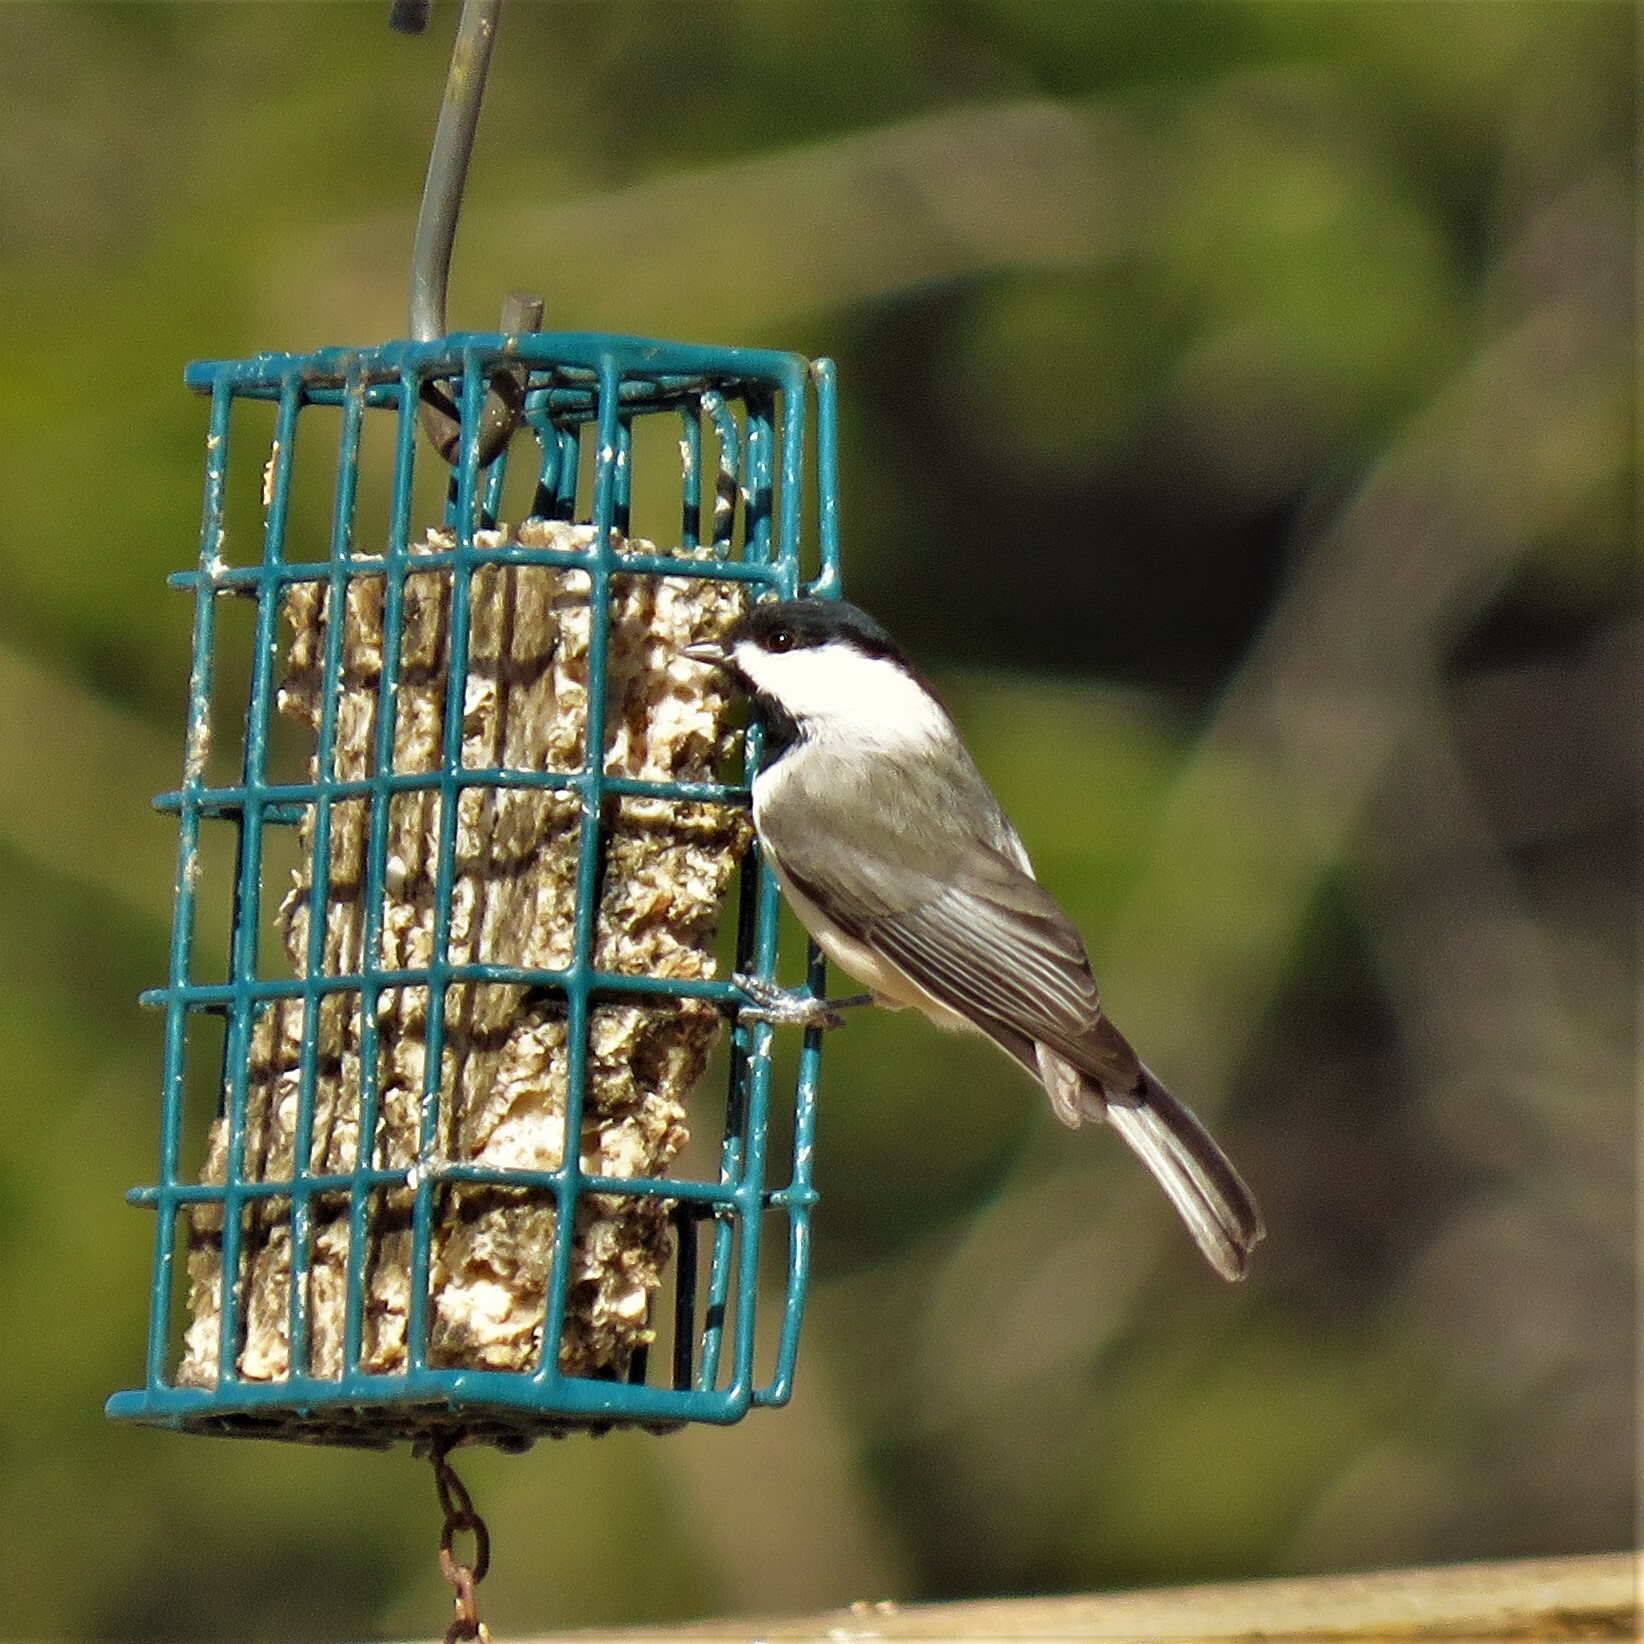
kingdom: Animalia
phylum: Chordata
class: Aves
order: Passeriformes
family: Paridae
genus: Poecile
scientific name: Poecile carolinensis
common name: Carolina chickadee
